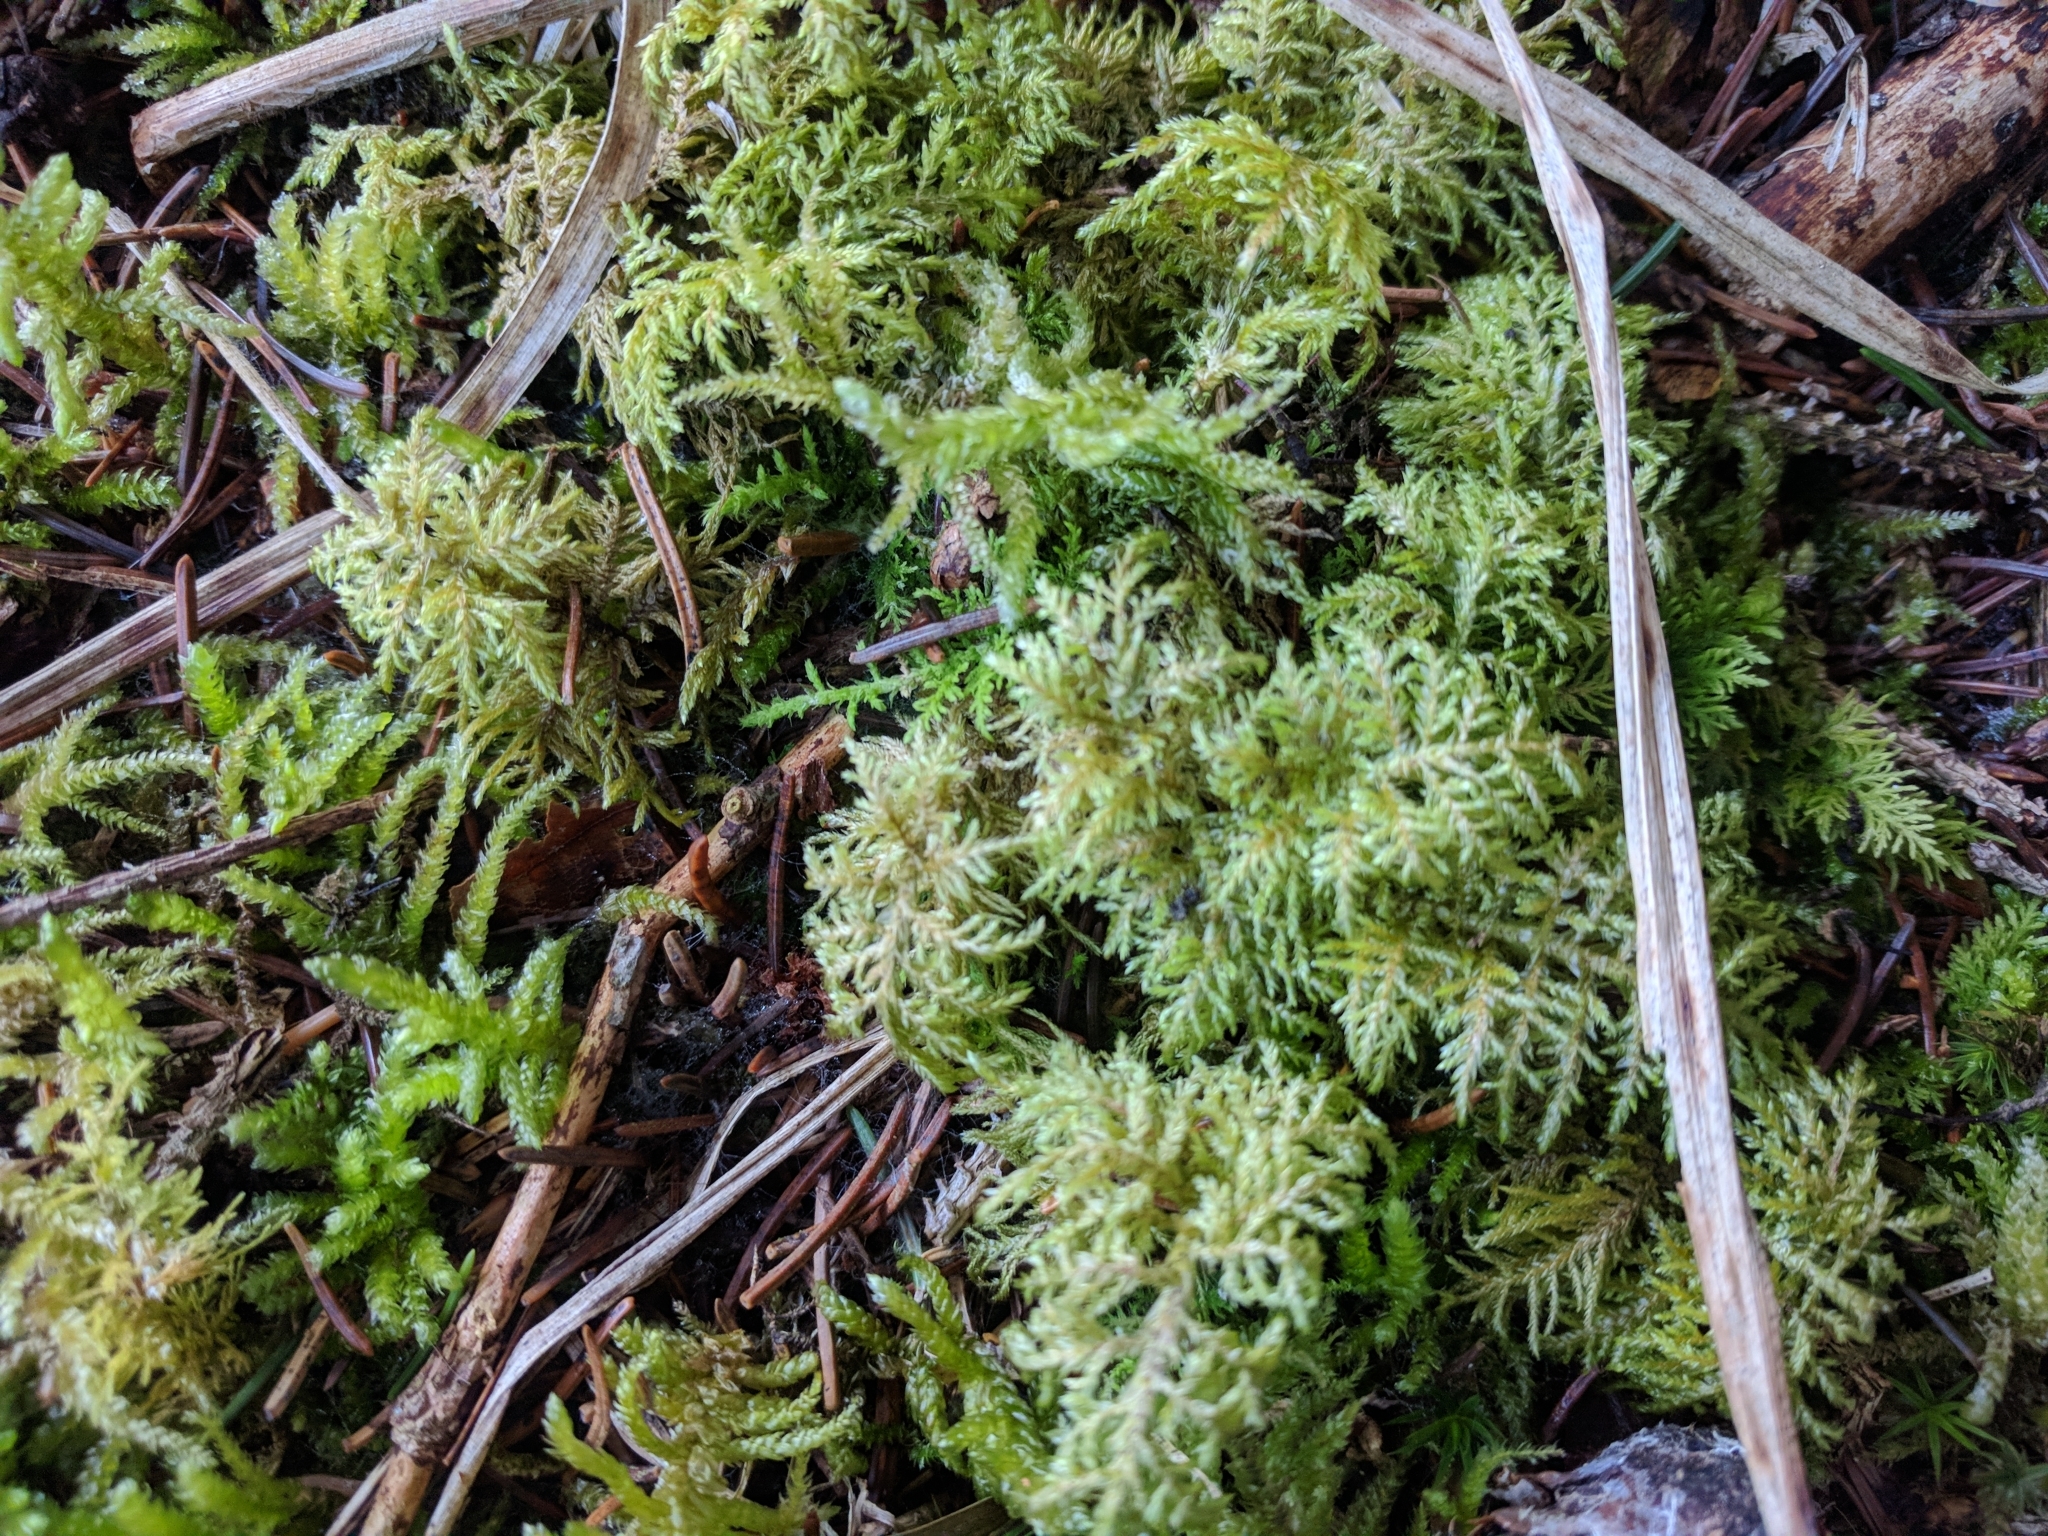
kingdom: Plantae
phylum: Bryophyta
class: Bryopsida
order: Hypnales
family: Hylocomiaceae
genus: Hylocomium
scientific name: Hylocomium splendens
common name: Stairstep moss
